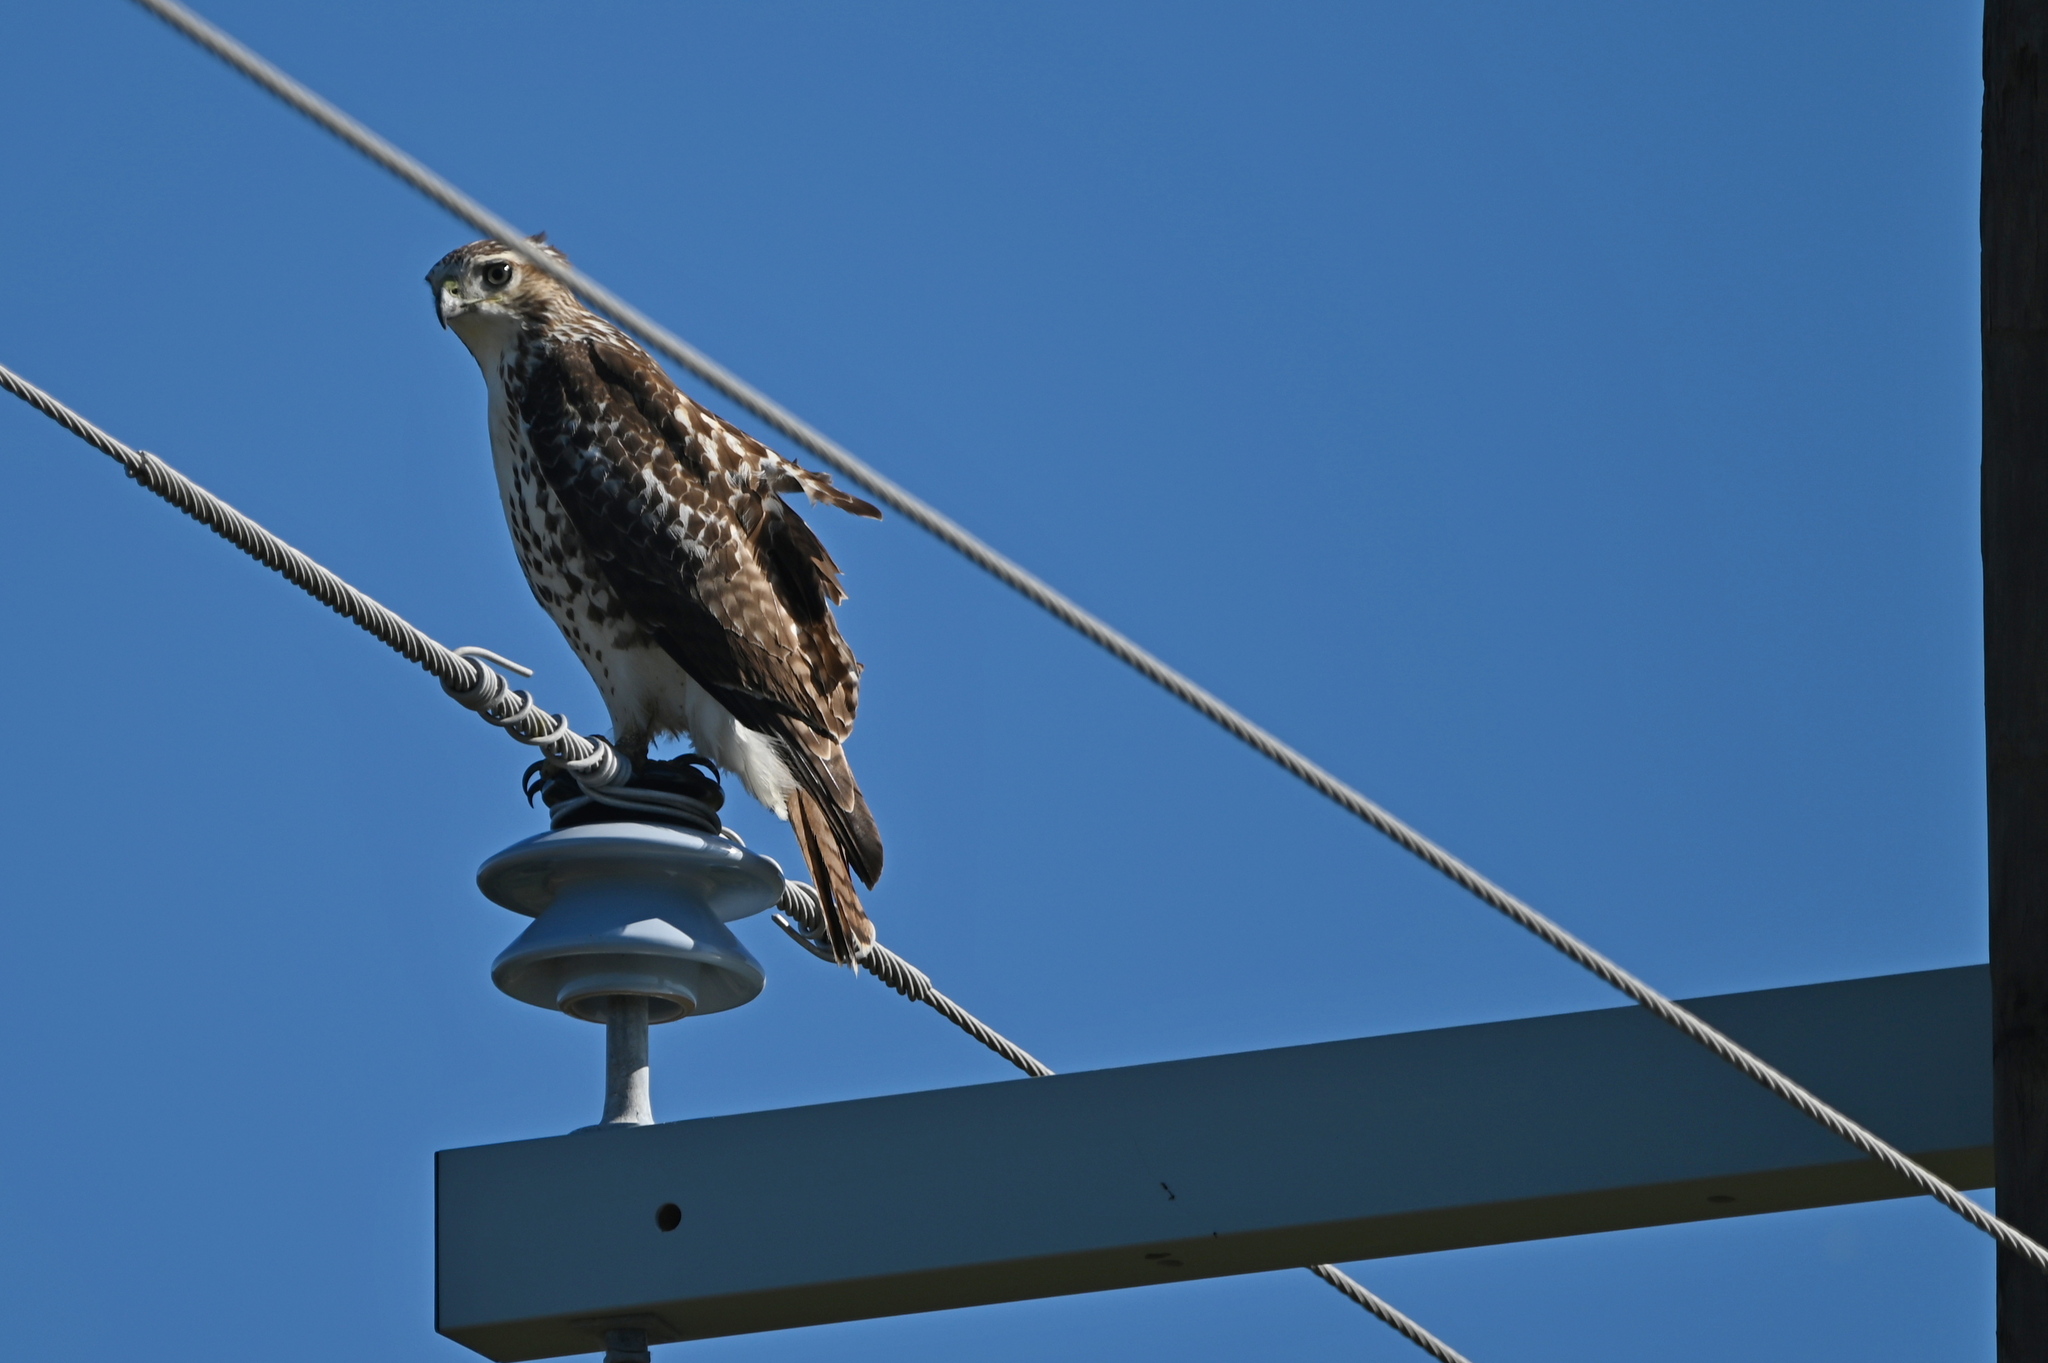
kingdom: Animalia
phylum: Chordata
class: Aves
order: Accipitriformes
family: Accipitridae
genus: Buteo
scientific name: Buteo jamaicensis
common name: Red-tailed hawk
